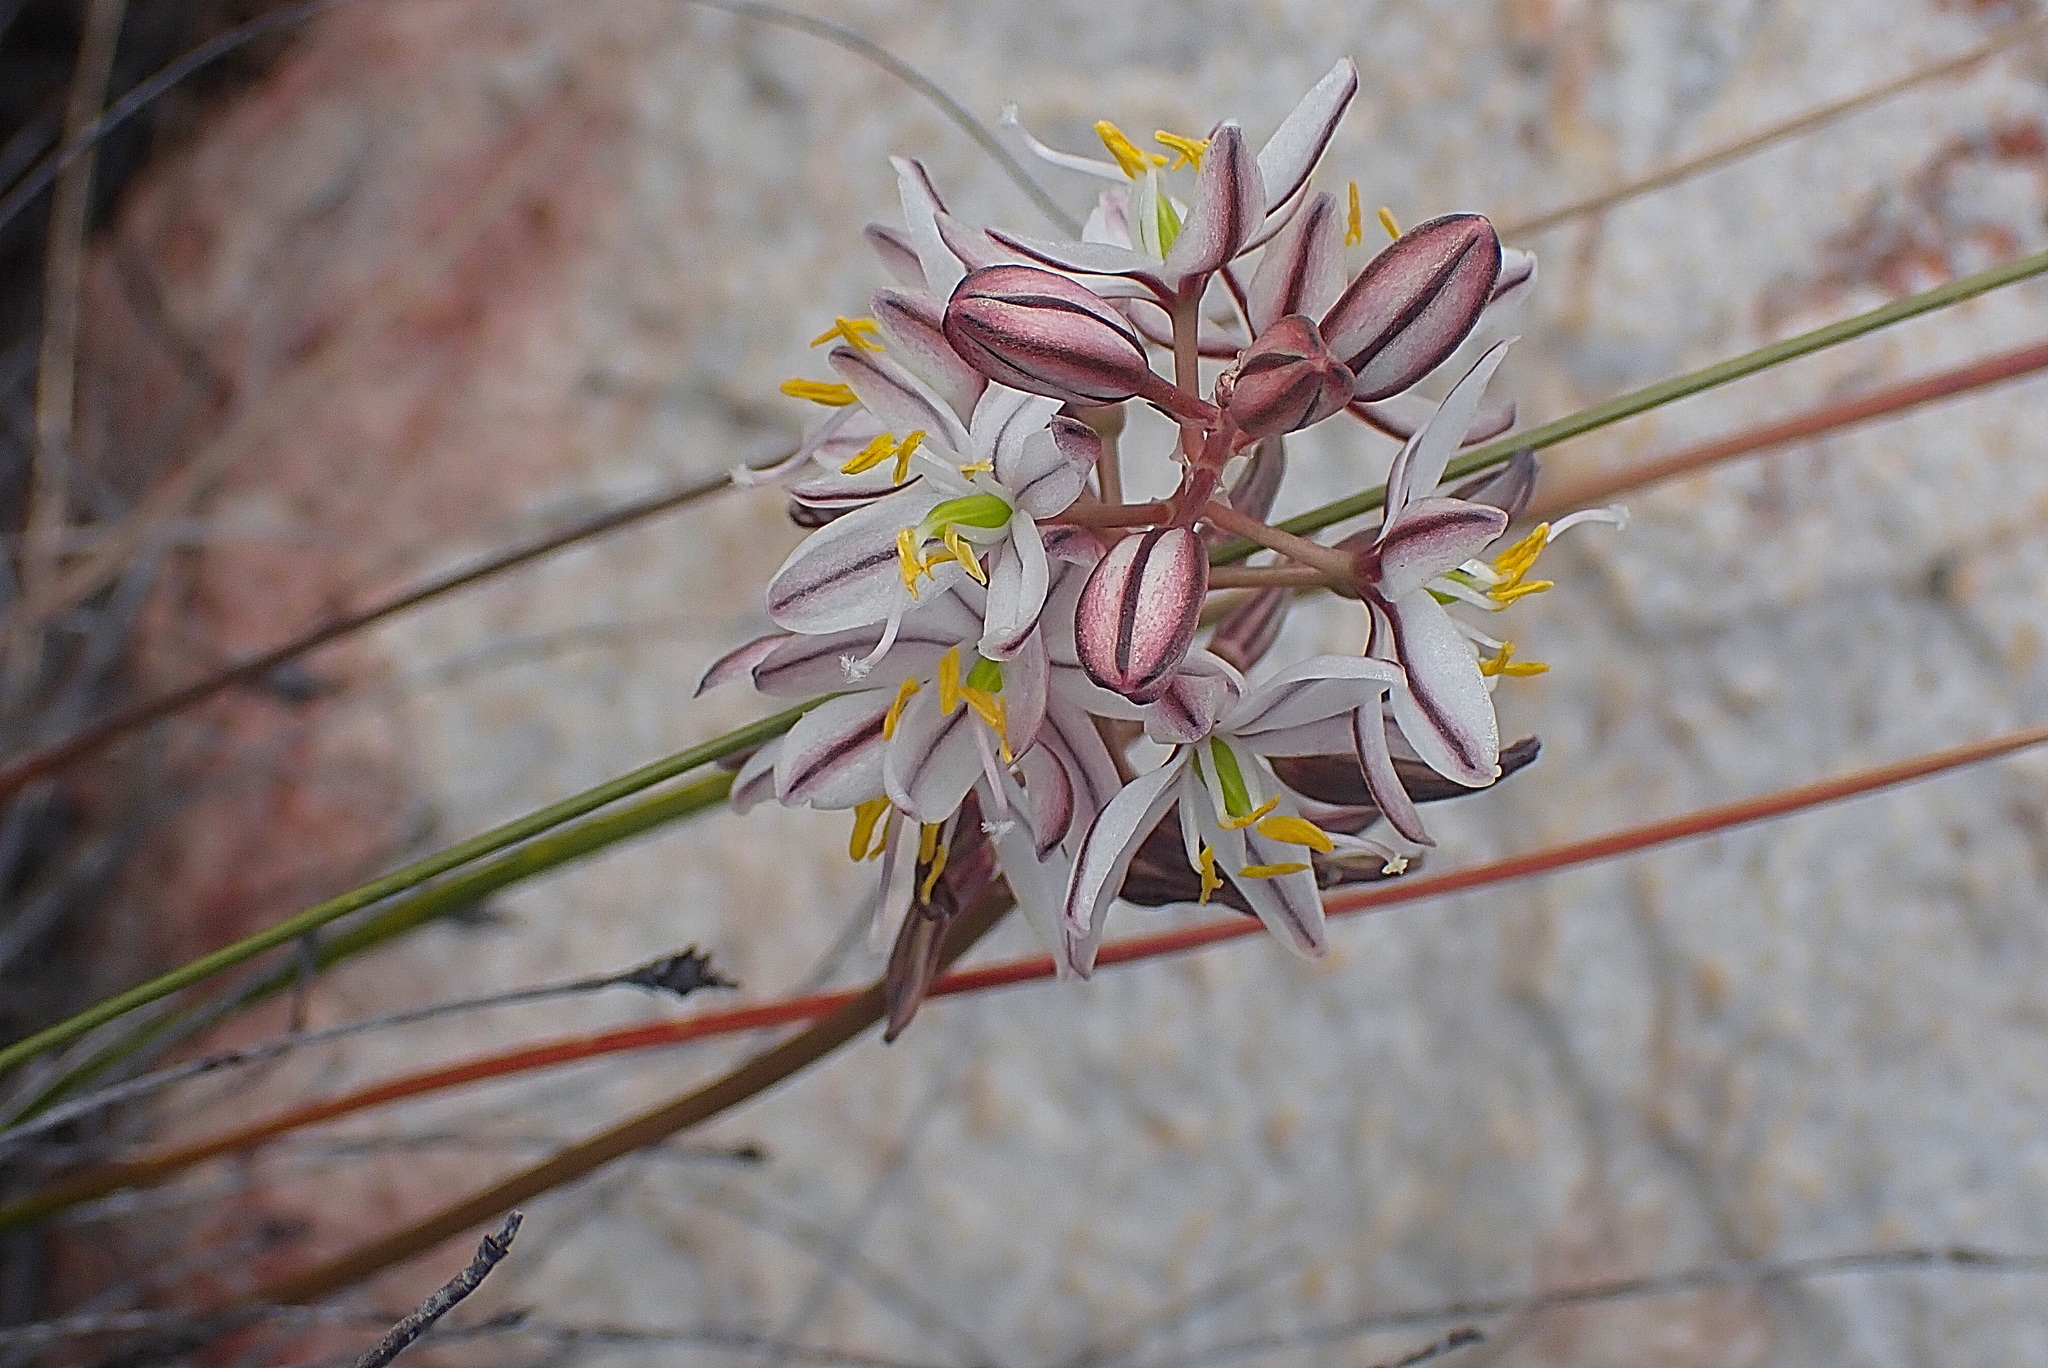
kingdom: Plantae
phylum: Tracheophyta
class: Liliopsida
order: Asparagales
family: Asparagaceae
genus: Drimia
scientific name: Drimia exuviata
